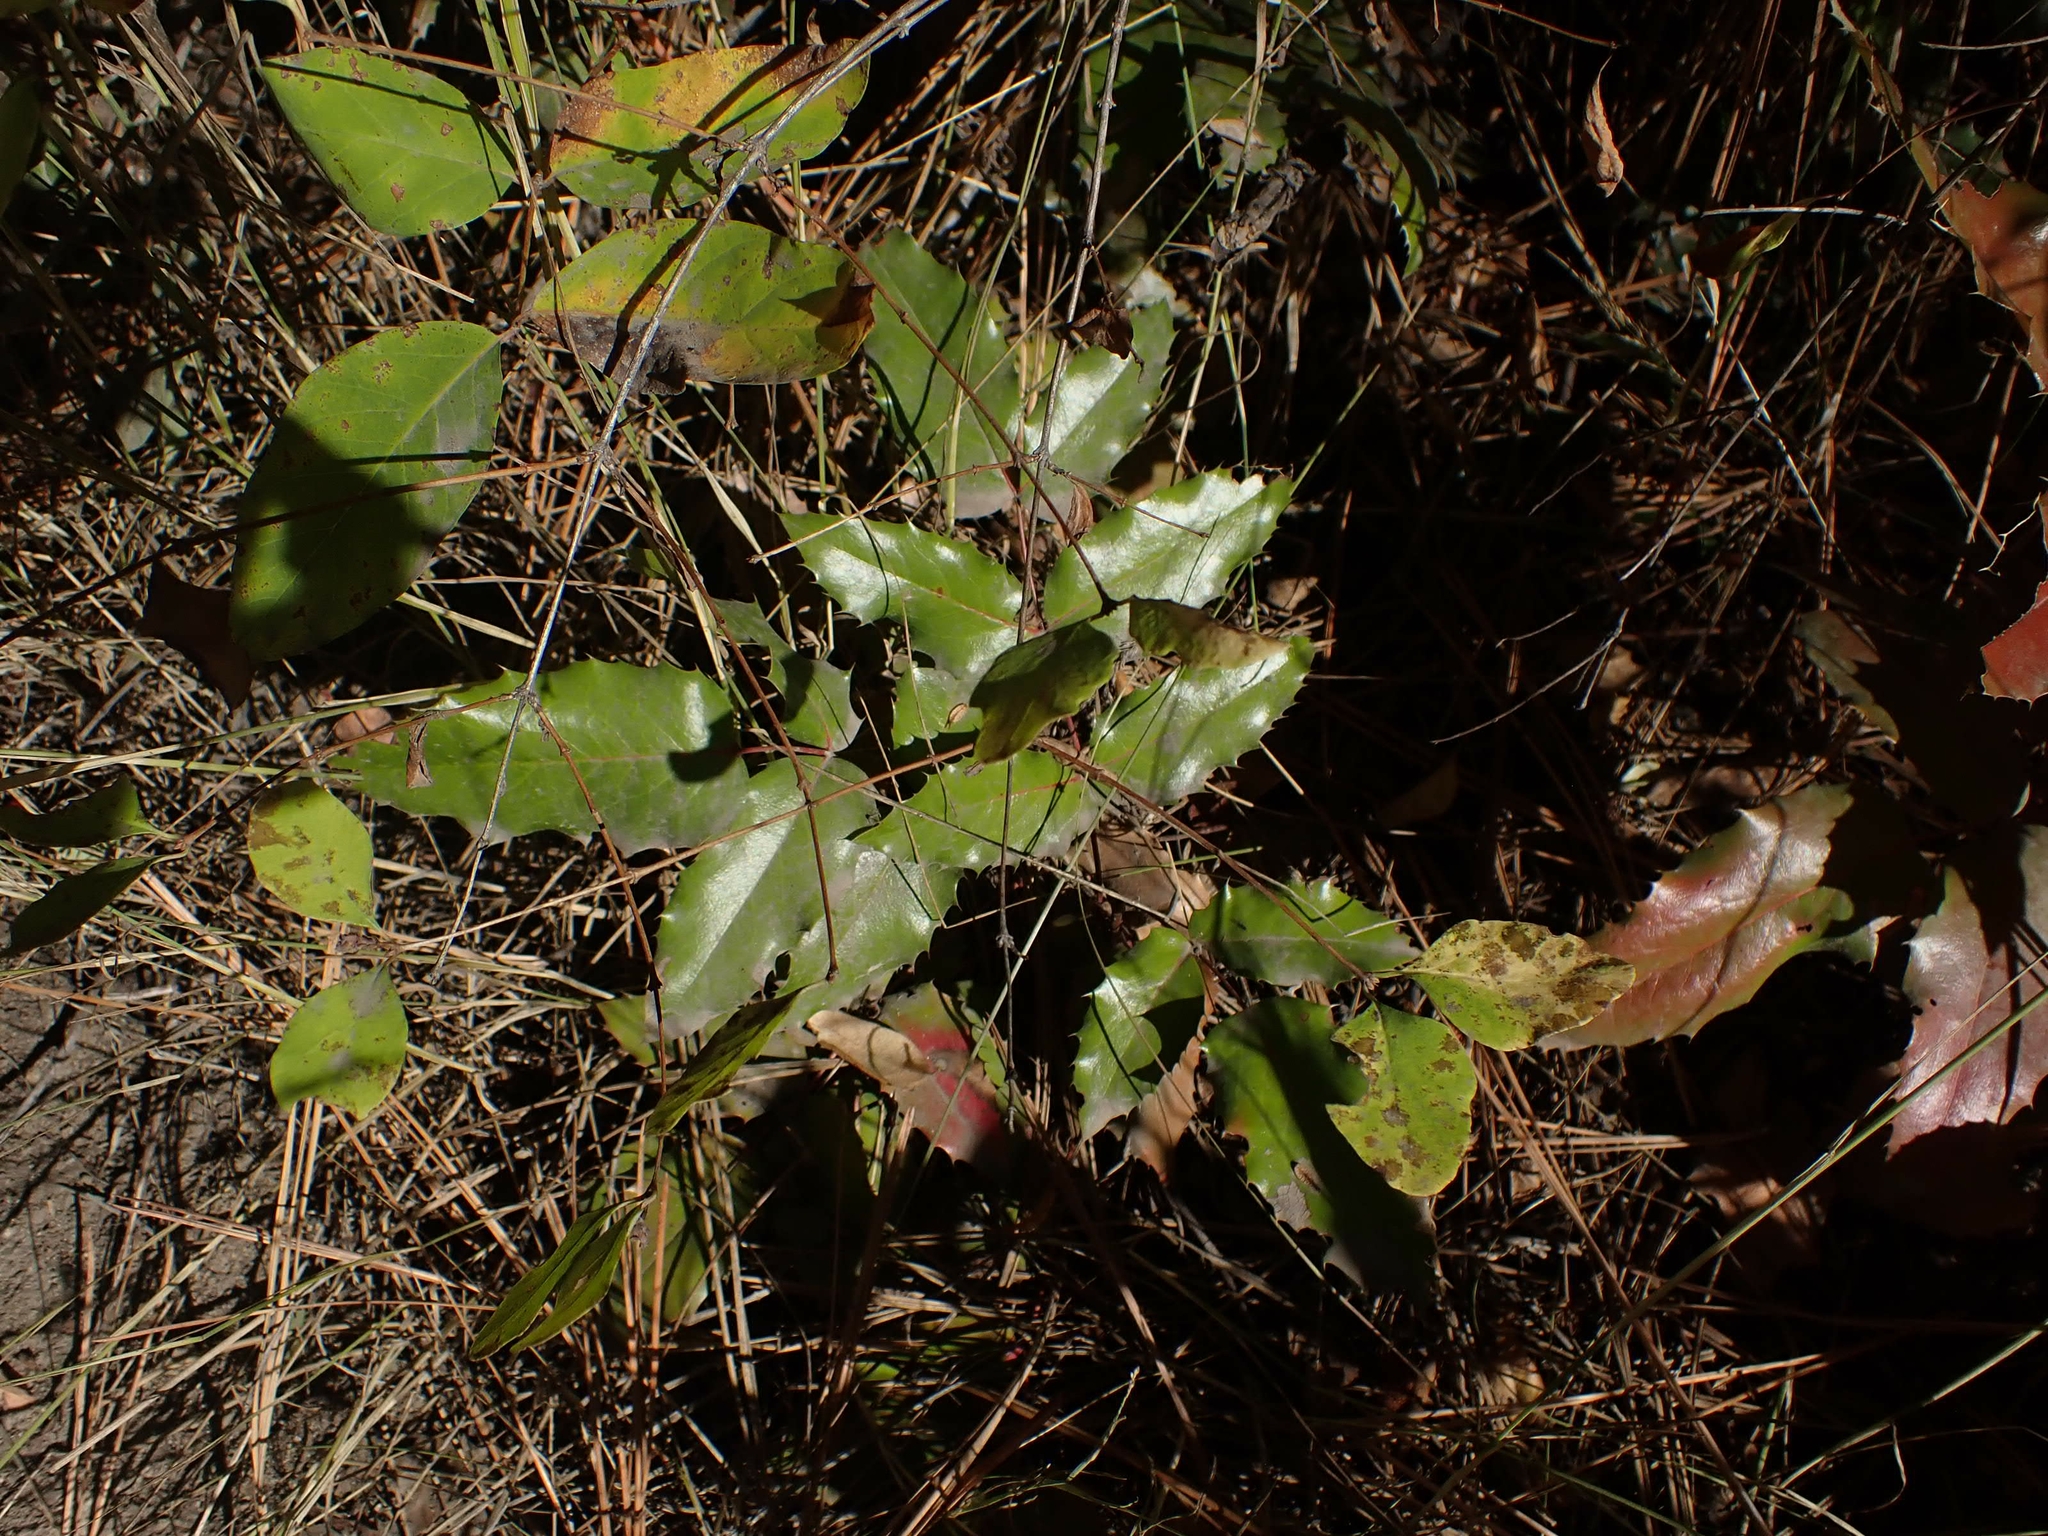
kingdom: Plantae
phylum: Tracheophyta
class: Magnoliopsida
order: Ranunculales
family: Berberidaceae
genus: Mahonia
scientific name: Mahonia aquifolium
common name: Oregon-grape
